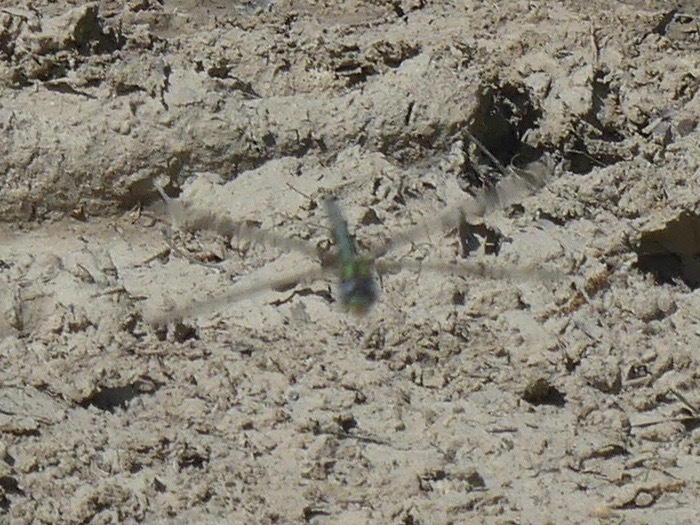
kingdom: Animalia
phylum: Arthropoda
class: Insecta
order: Odonata
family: Aeshnidae
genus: Nasiaeschna
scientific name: Nasiaeschna pentacantha
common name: Cyrano darner
